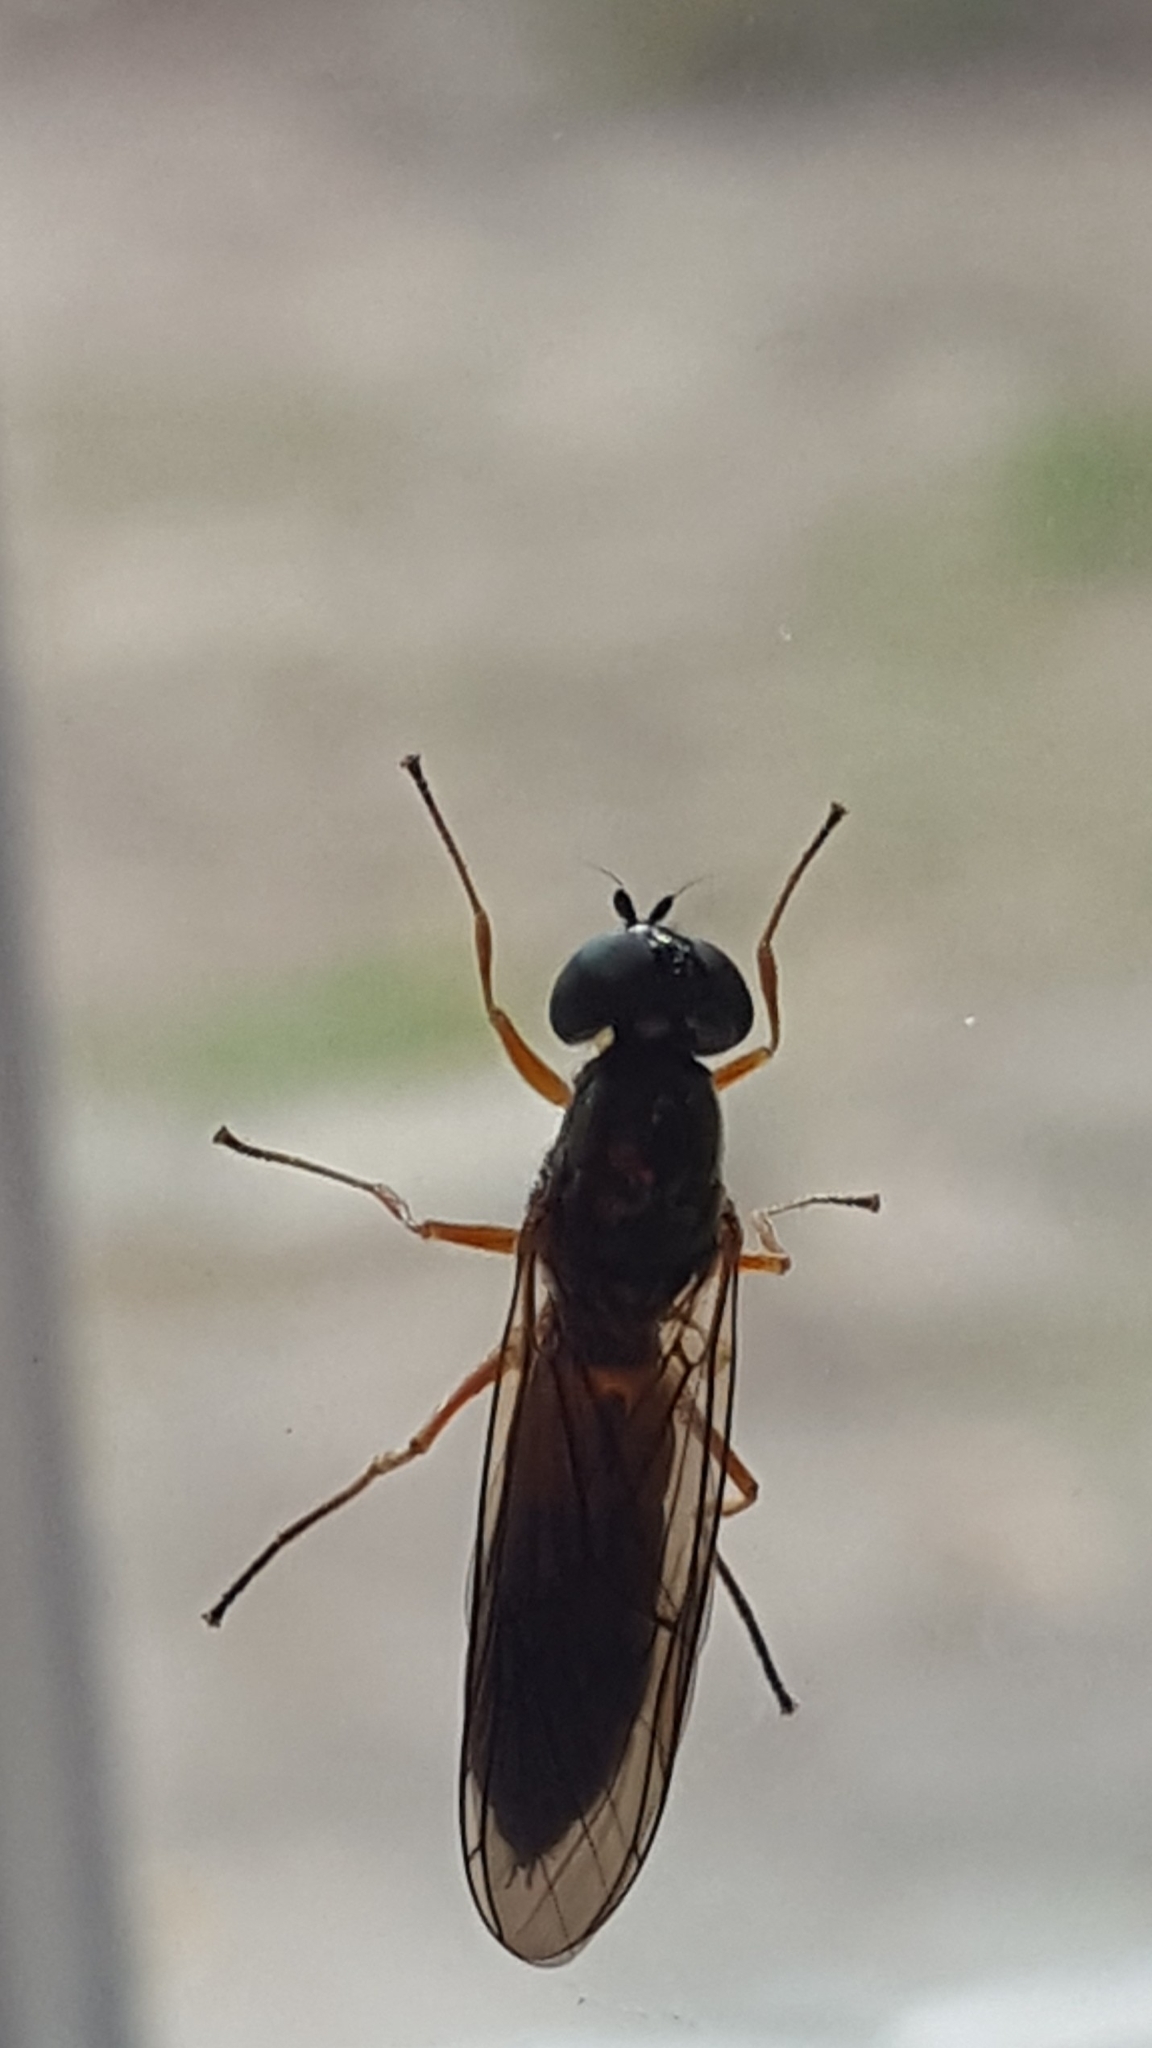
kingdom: Animalia
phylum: Arthropoda
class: Insecta
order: Diptera
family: Stratiomyidae
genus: Sargus
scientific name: Sargus bipunctatus
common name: Twin-spot centurion
